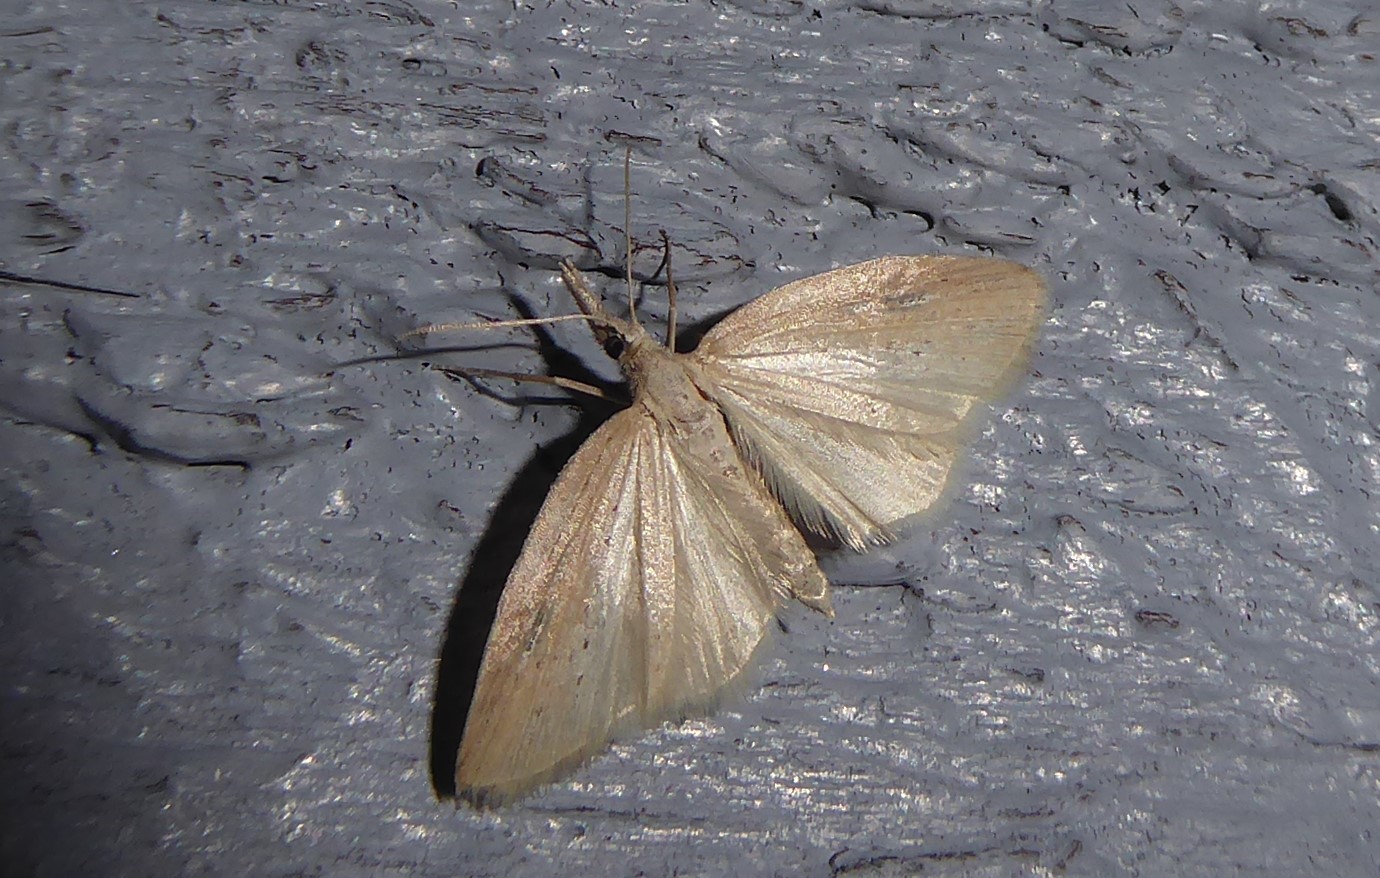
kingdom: Animalia
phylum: Arthropoda
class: Insecta
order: Lepidoptera
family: Geometridae
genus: Microdes
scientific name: Microdes epicryptis
